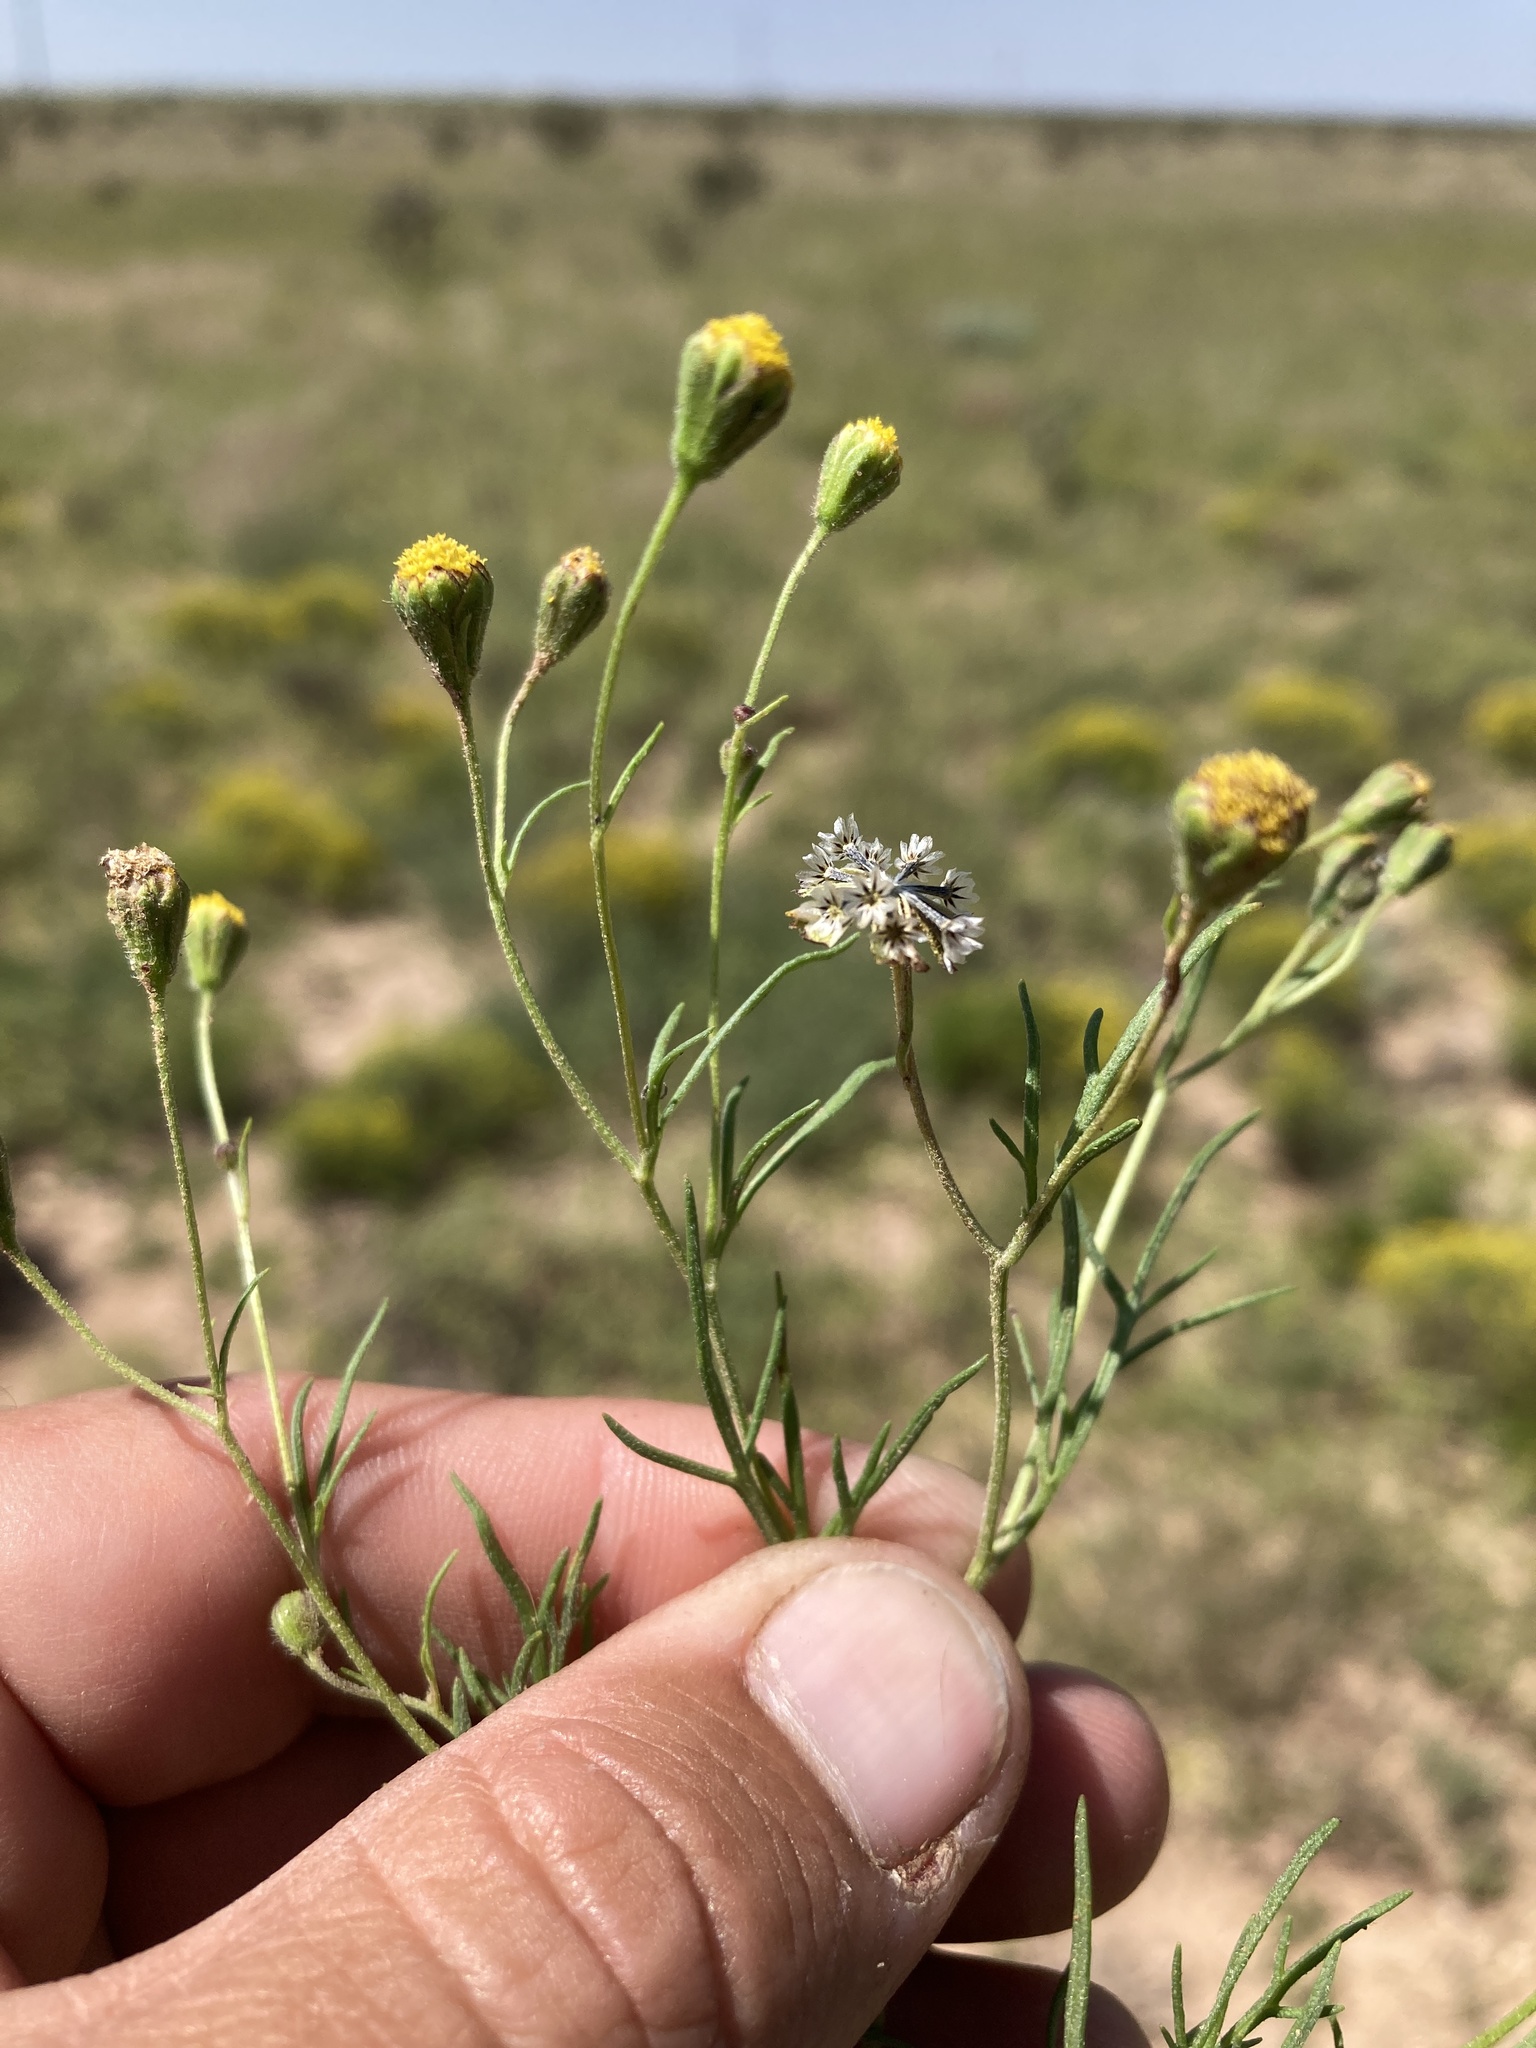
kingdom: Plantae
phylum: Tracheophyta
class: Magnoliopsida
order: Asterales
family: Asteraceae
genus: Picradeniopsis
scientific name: Picradeniopsis multiflora
